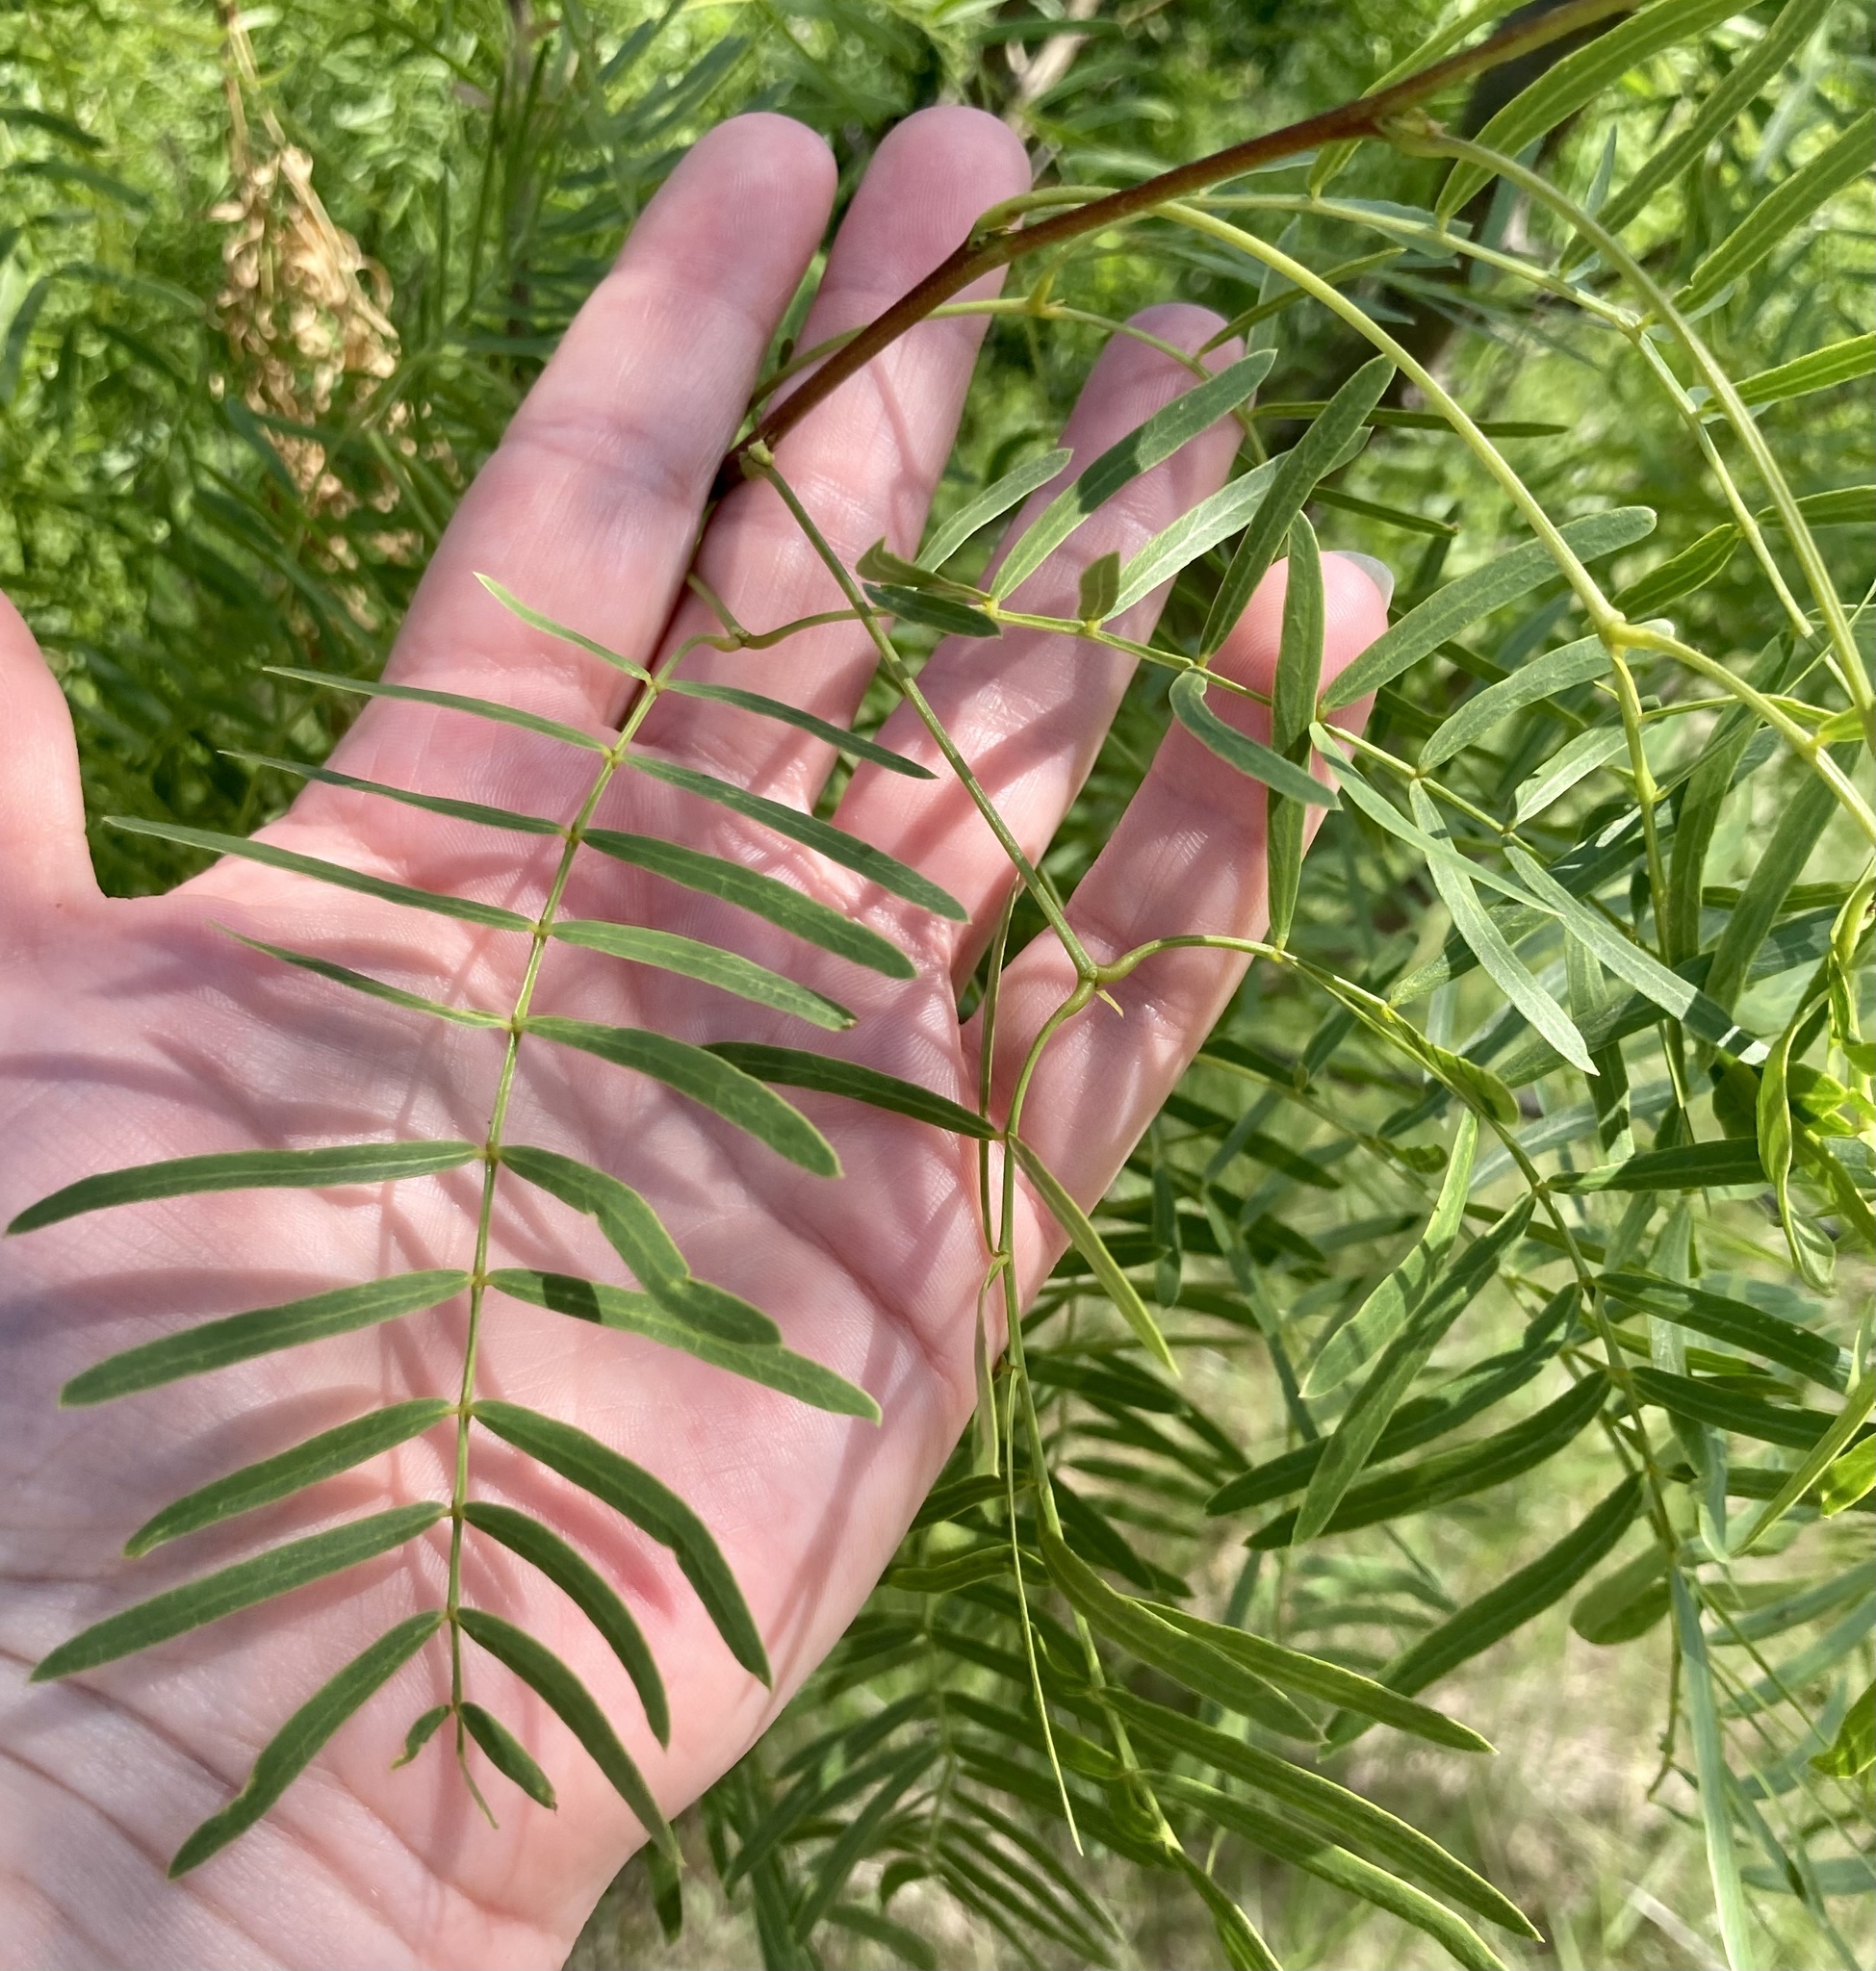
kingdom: Plantae
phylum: Tracheophyta
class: Magnoliopsida
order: Fabales
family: Fabaceae
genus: Prosopis
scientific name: Prosopis glandulosa
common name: Honey mesquite
